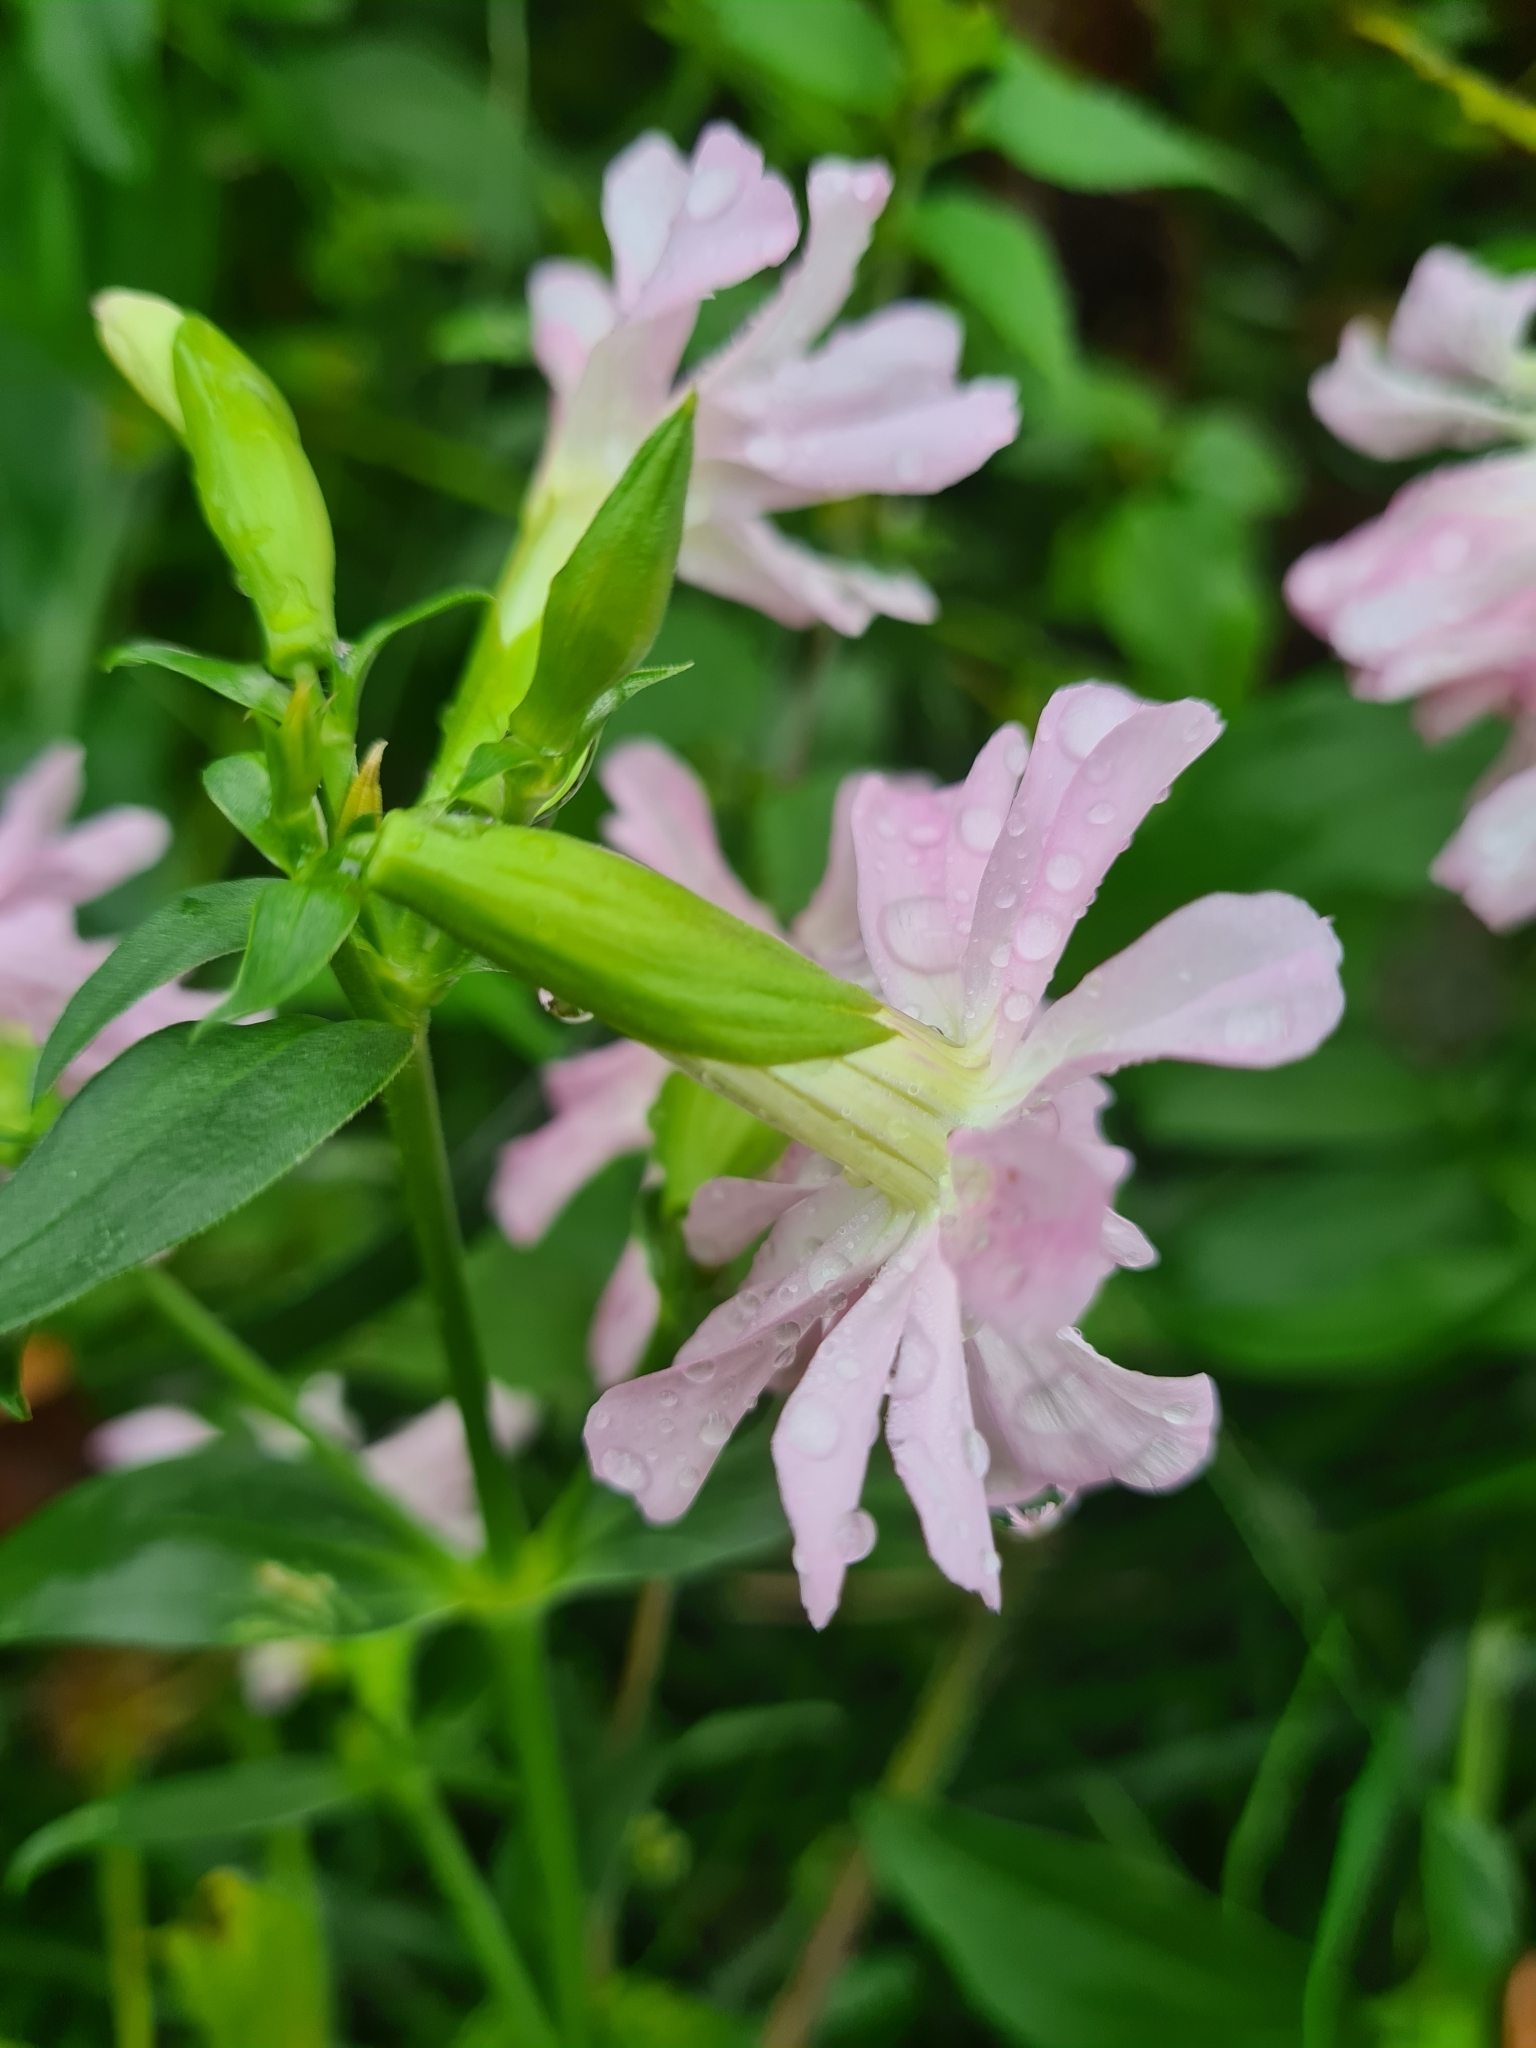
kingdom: Plantae
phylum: Tracheophyta
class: Magnoliopsida
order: Caryophyllales
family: Caryophyllaceae
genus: Saponaria
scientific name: Saponaria officinalis
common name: Soapwort
